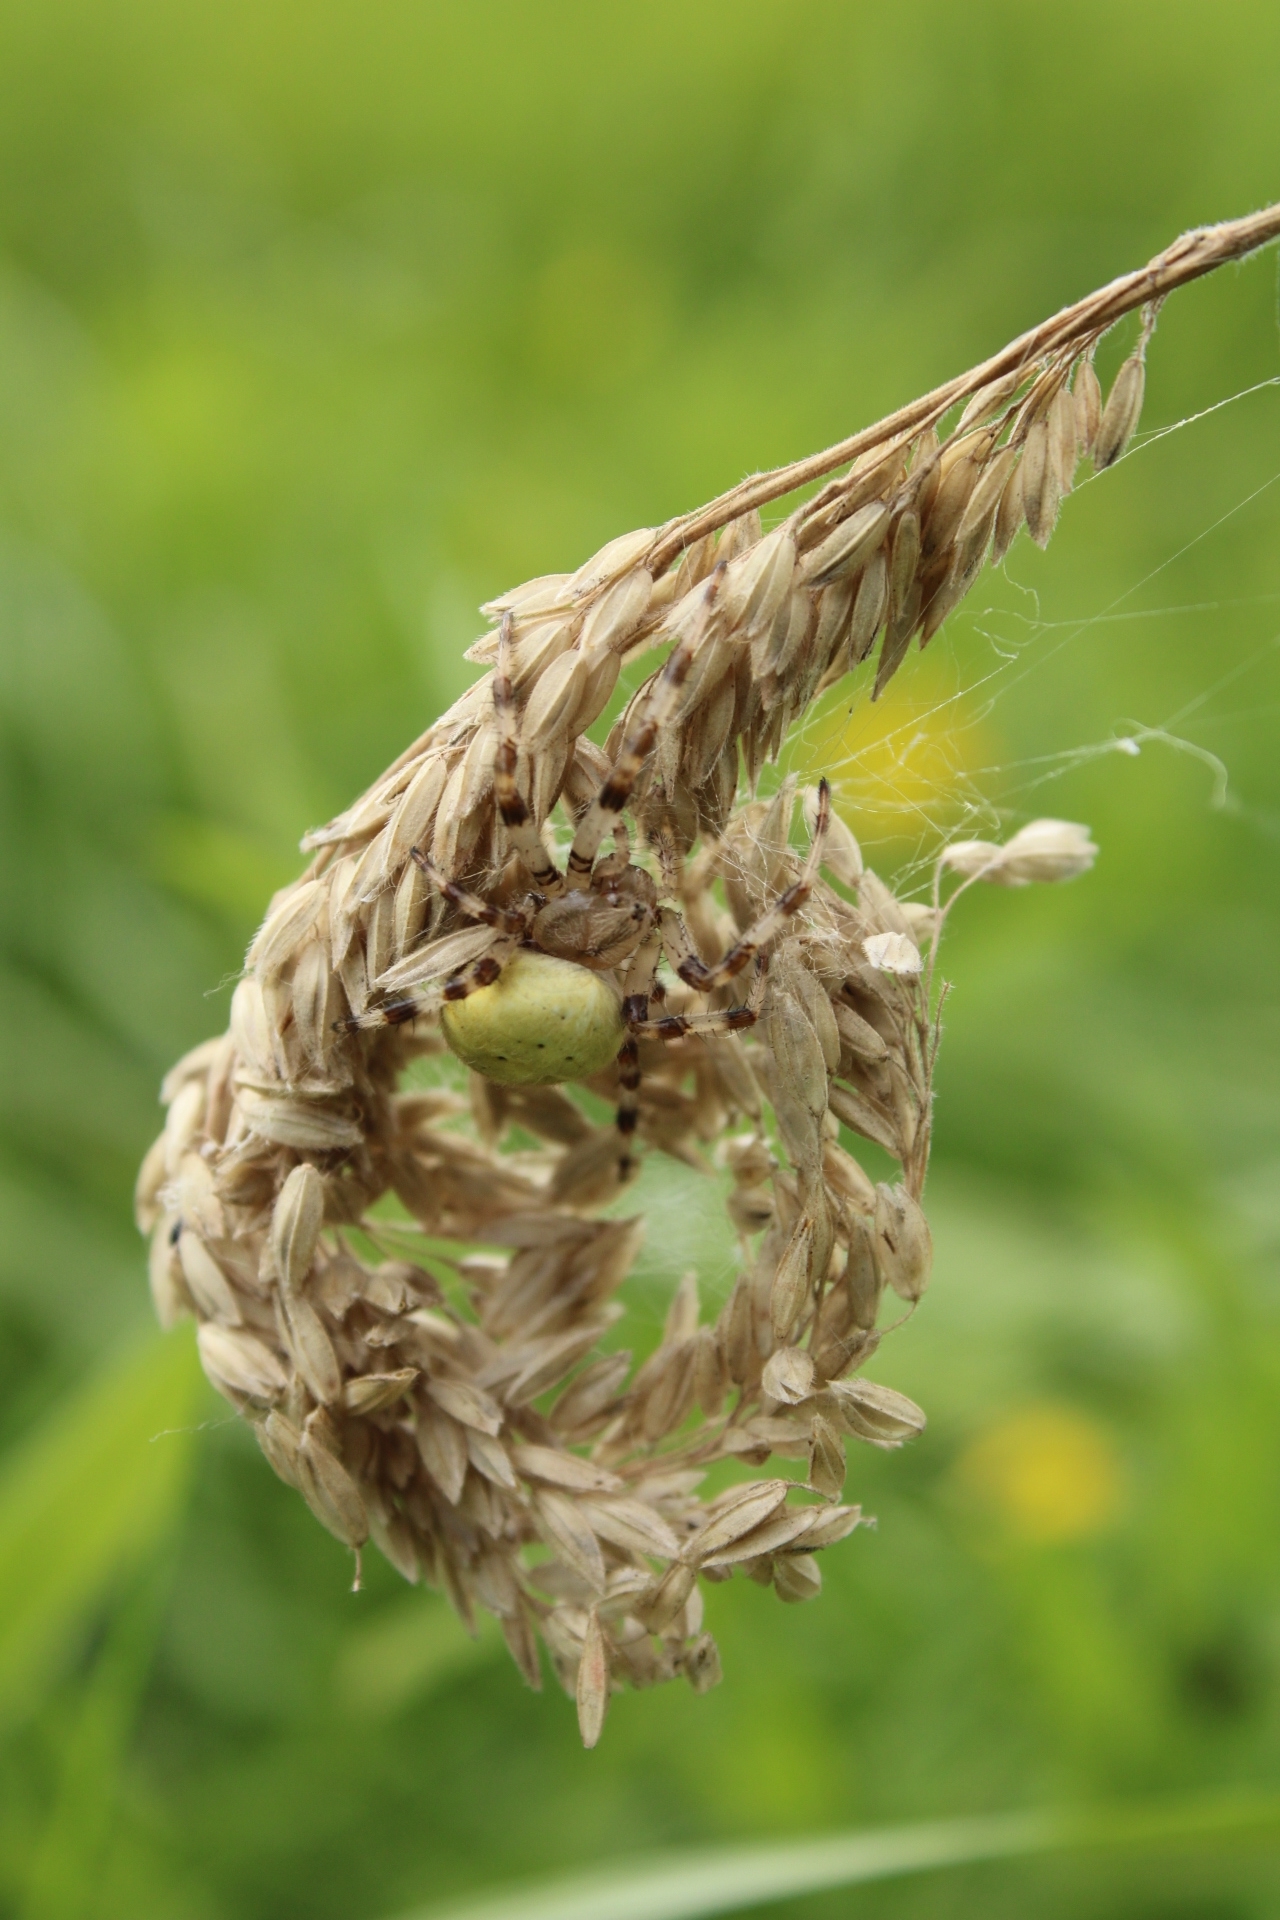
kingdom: Animalia
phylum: Arthropoda
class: Arachnida
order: Araneae
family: Araneidae
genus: Araneus
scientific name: Araneus quadratus
